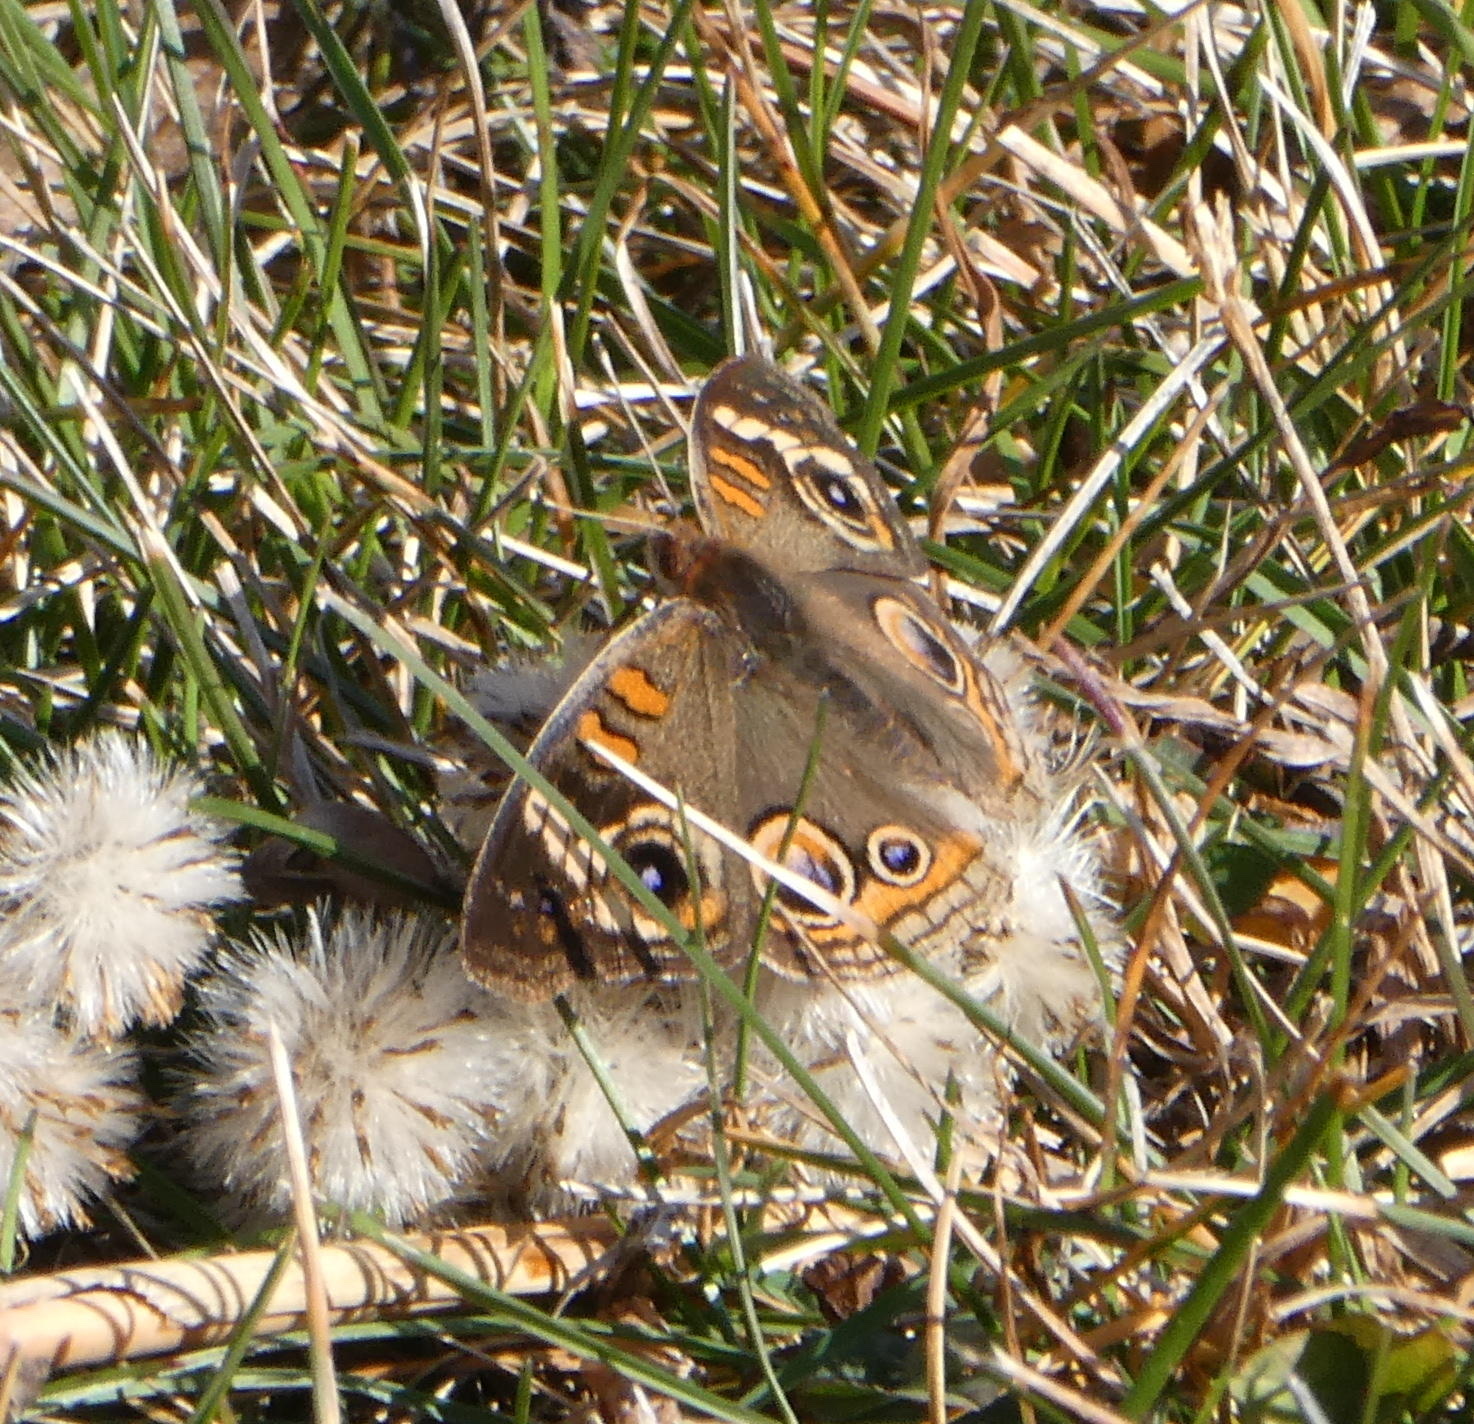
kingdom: Animalia
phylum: Arthropoda
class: Insecta
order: Lepidoptera
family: Nymphalidae
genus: Junonia
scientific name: Junonia coenia
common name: Common buckeye
